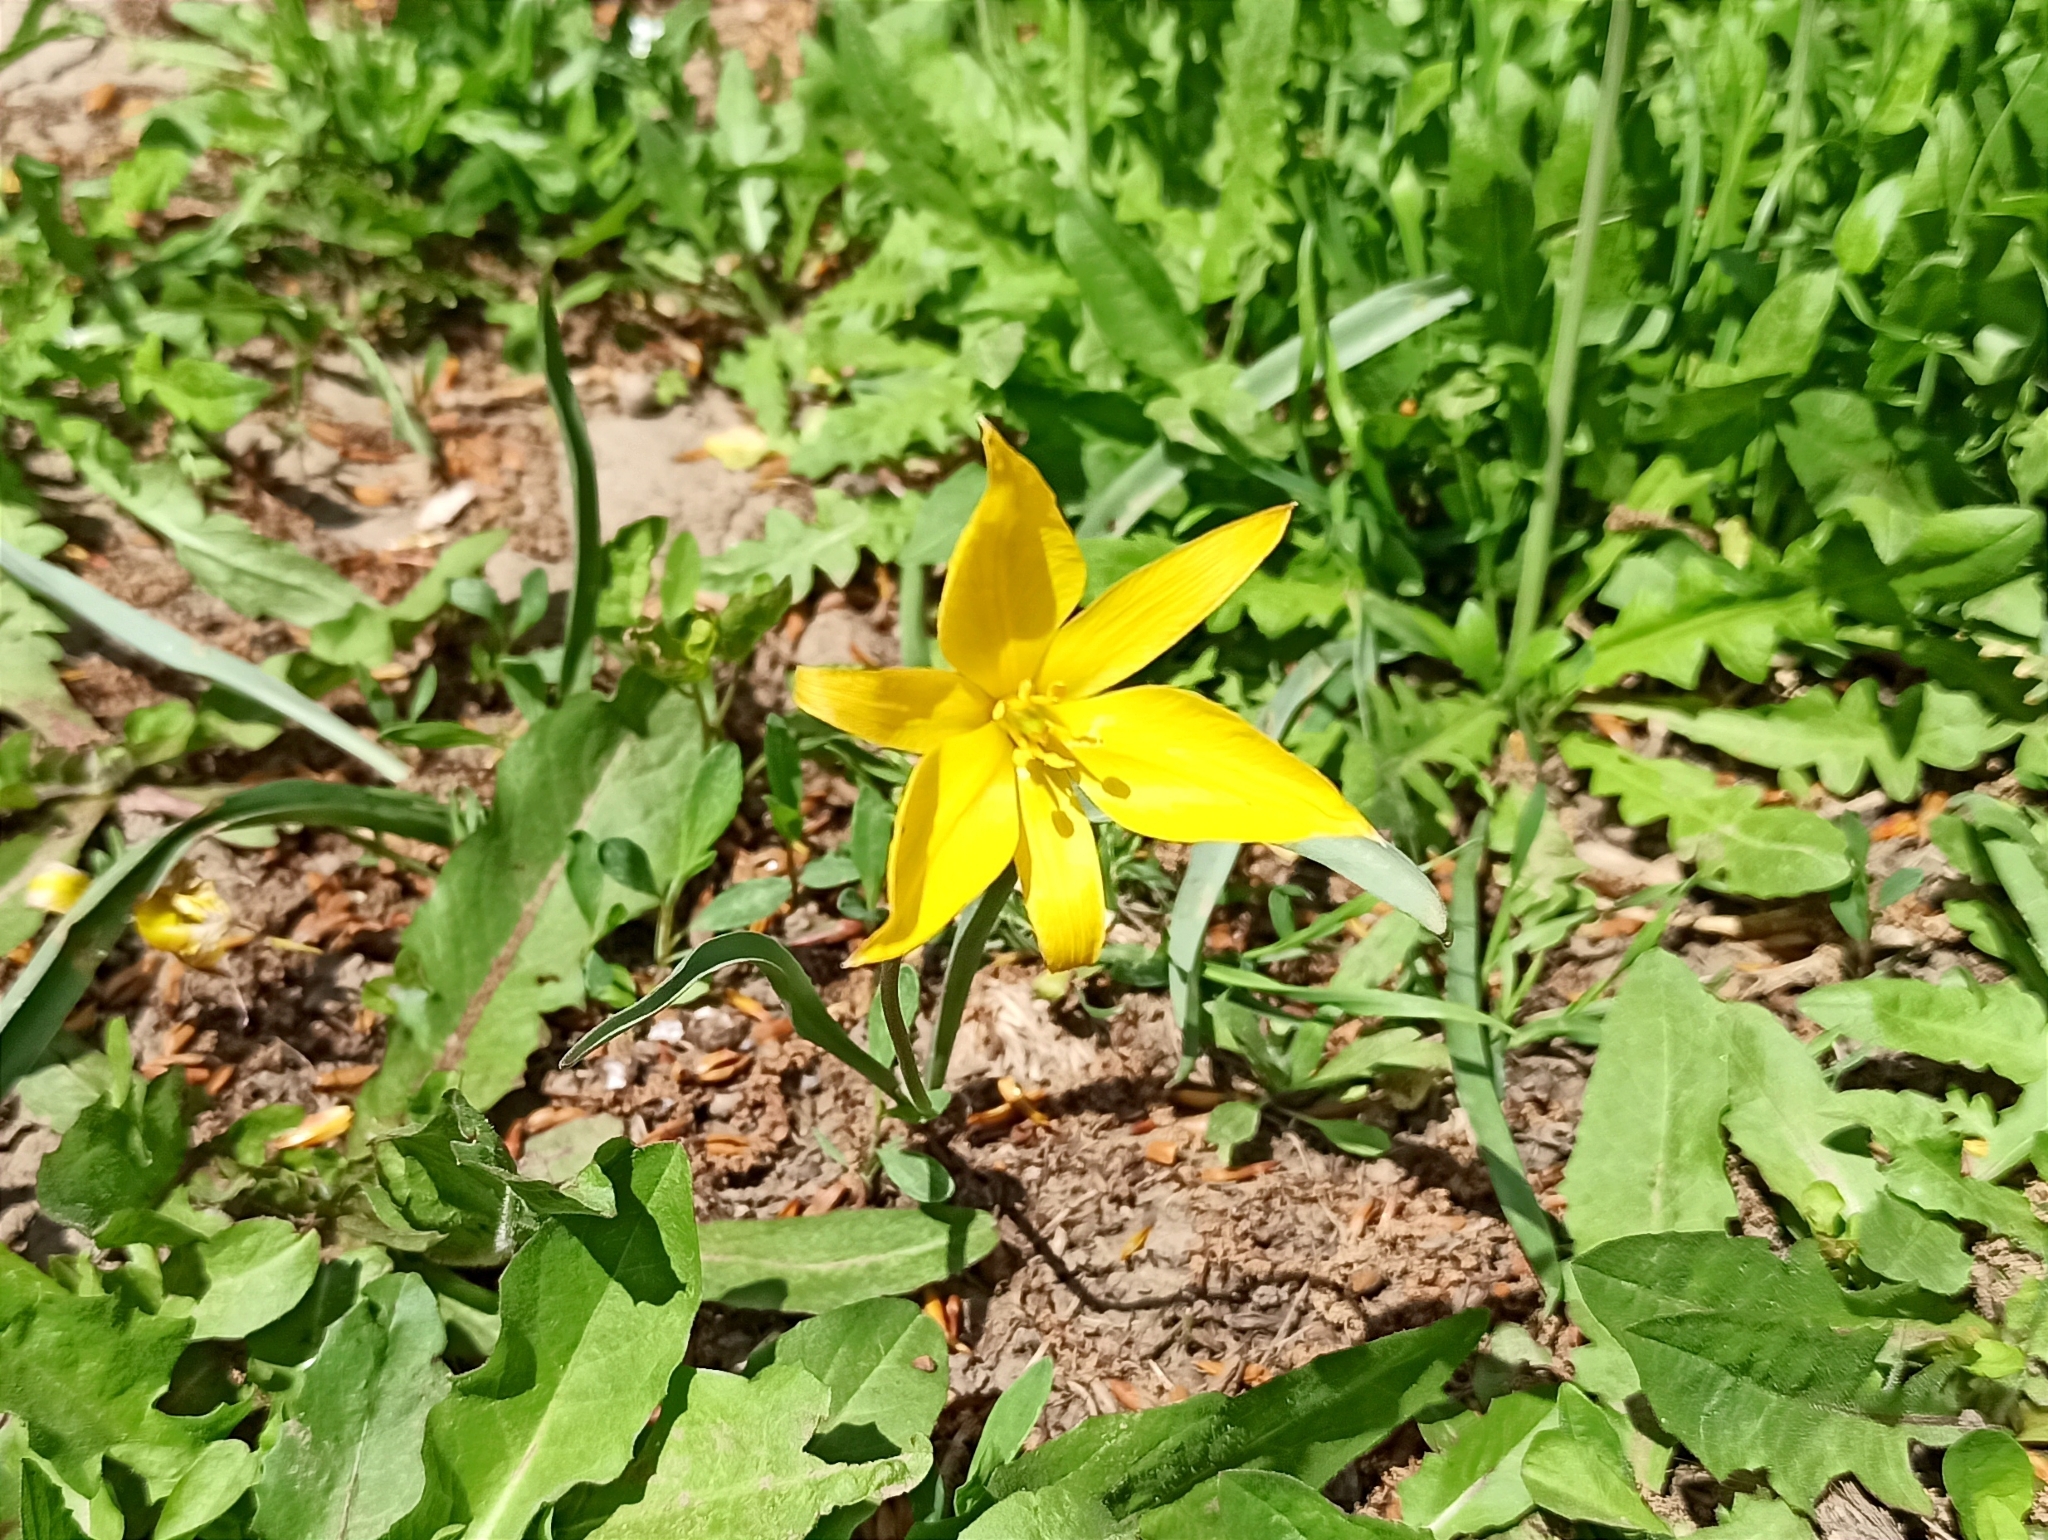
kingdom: Plantae
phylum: Tracheophyta
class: Liliopsida
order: Liliales
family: Liliaceae
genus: Tulipa
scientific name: Tulipa sylvestris
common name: Wild tulip
